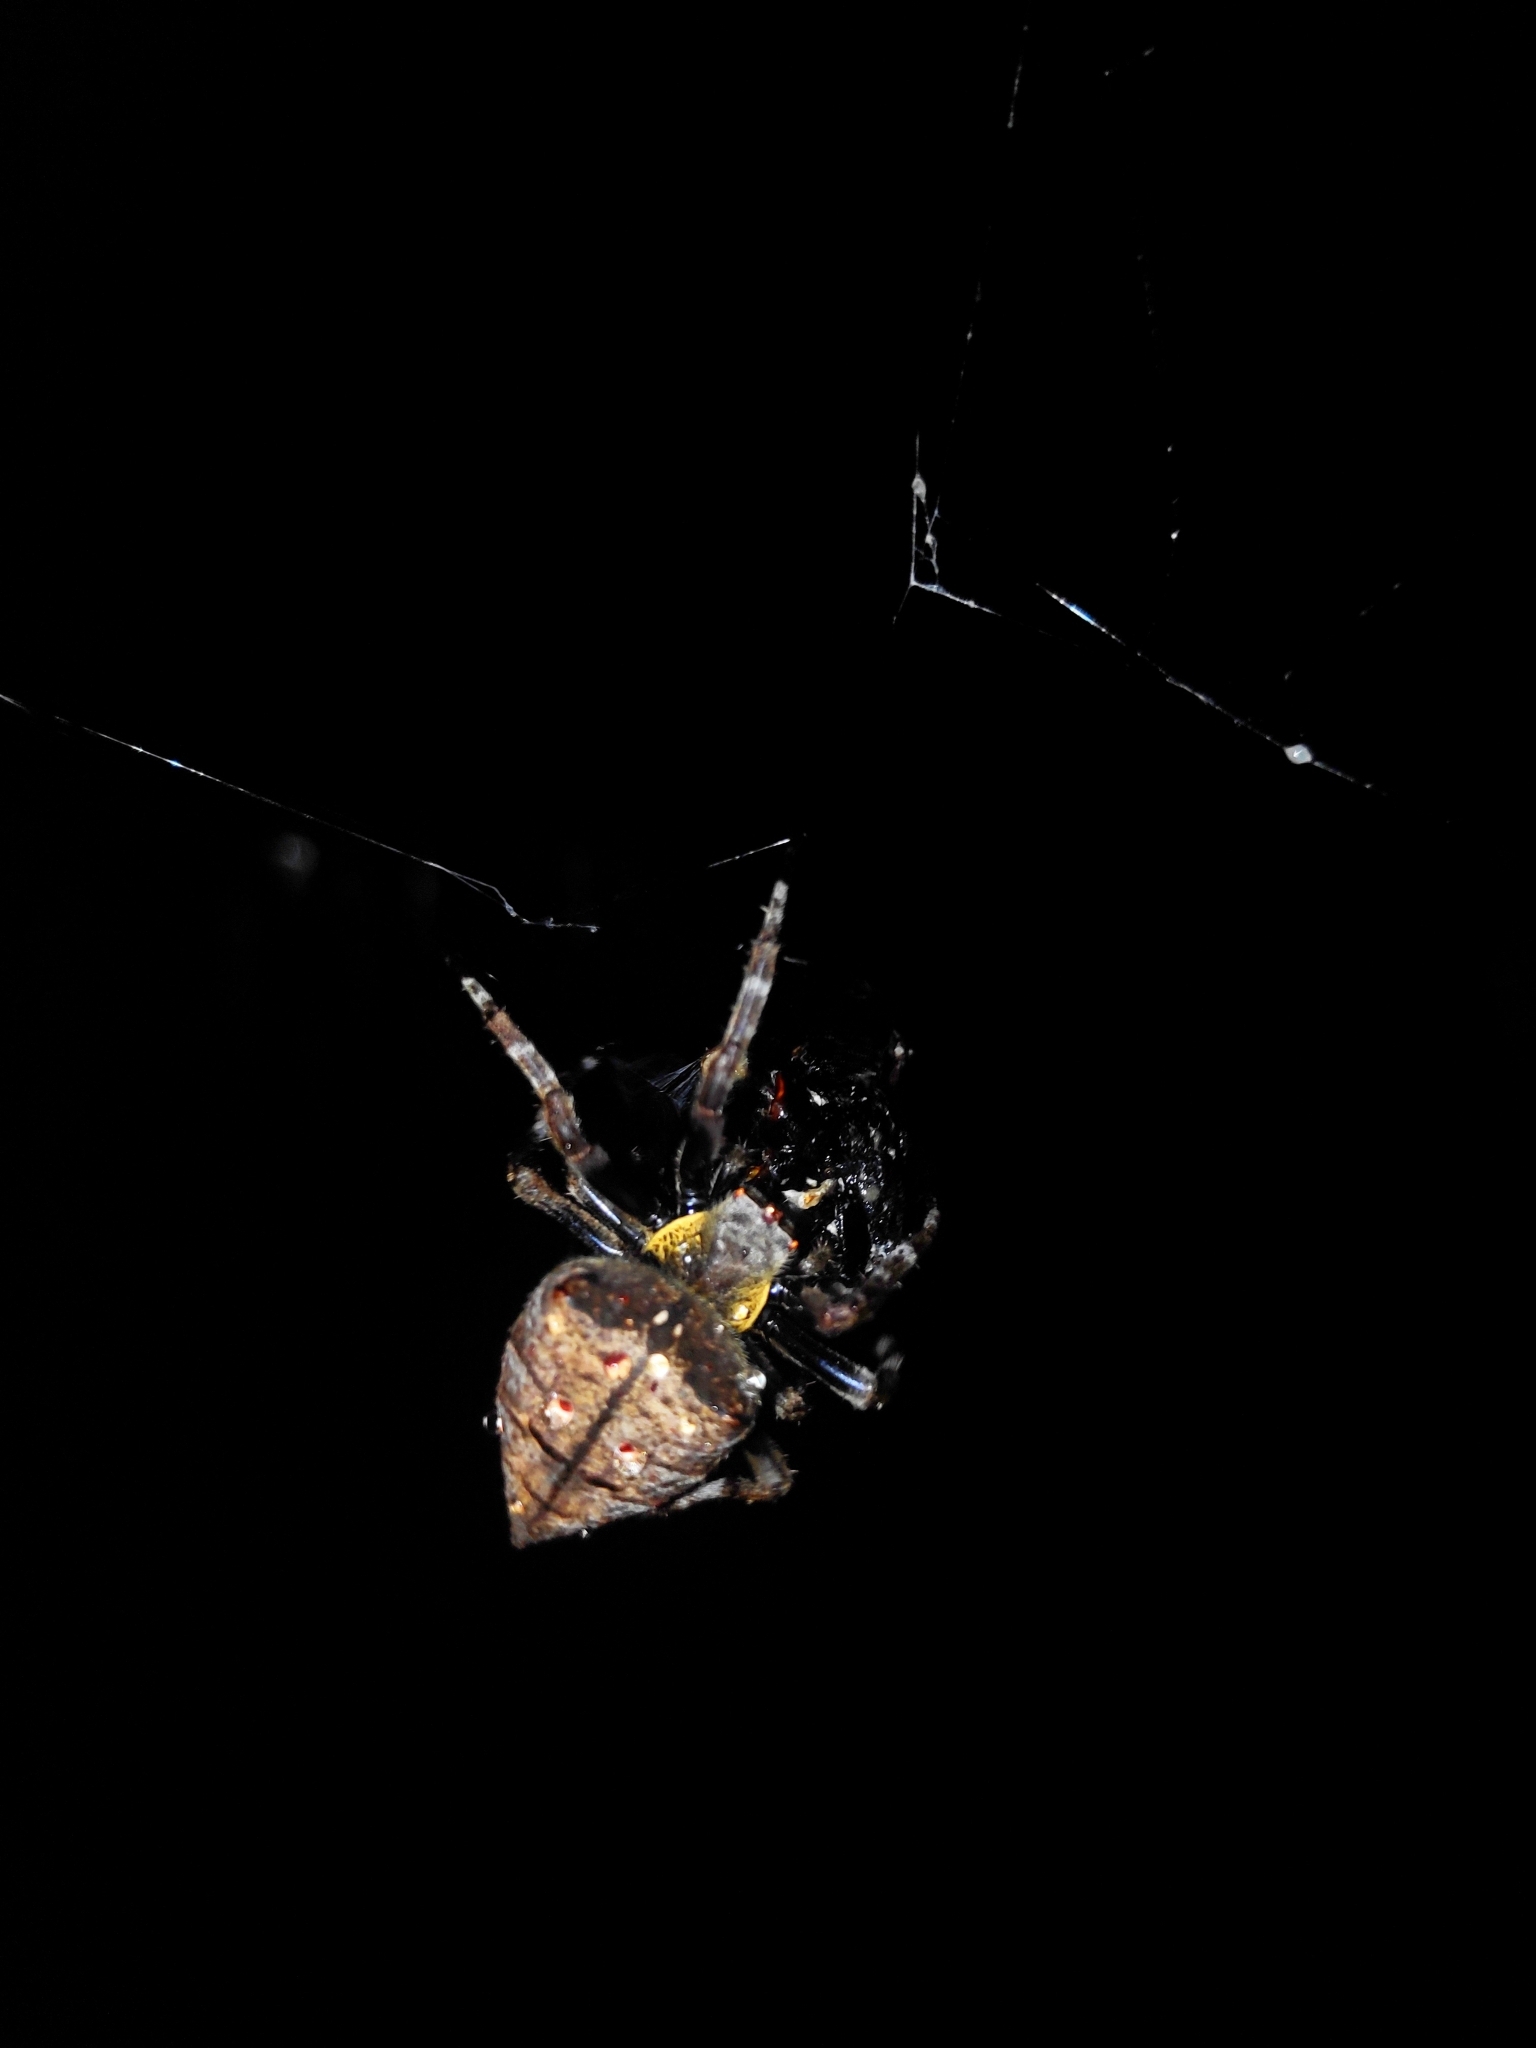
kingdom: Animalia
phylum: Arthropoda
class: Arachnida
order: Araneae
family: Araneidae
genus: Parawixia
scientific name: Parawixia dehaani
